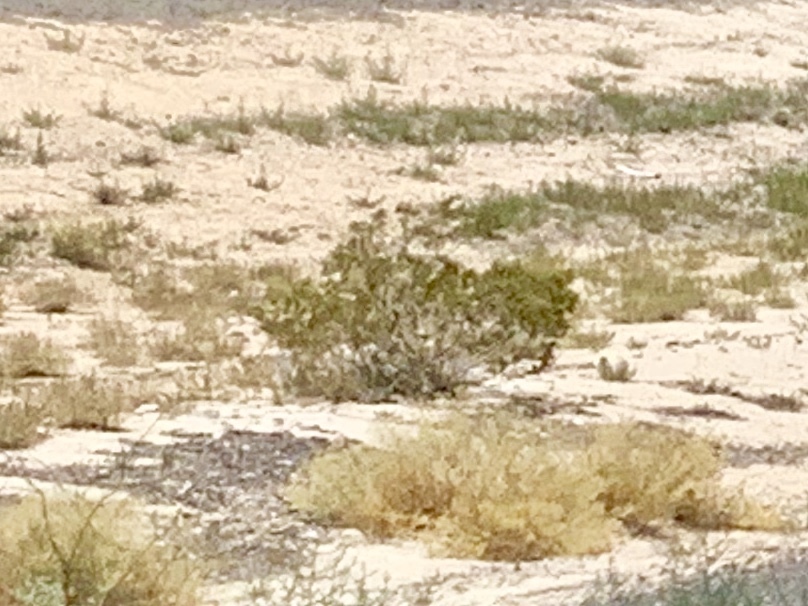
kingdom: Plantae
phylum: Tracheophyta
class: Magnoliopsida
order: Zygophyllales
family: Zygophyllaceae
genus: Larrea
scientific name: Larrea tridentata
